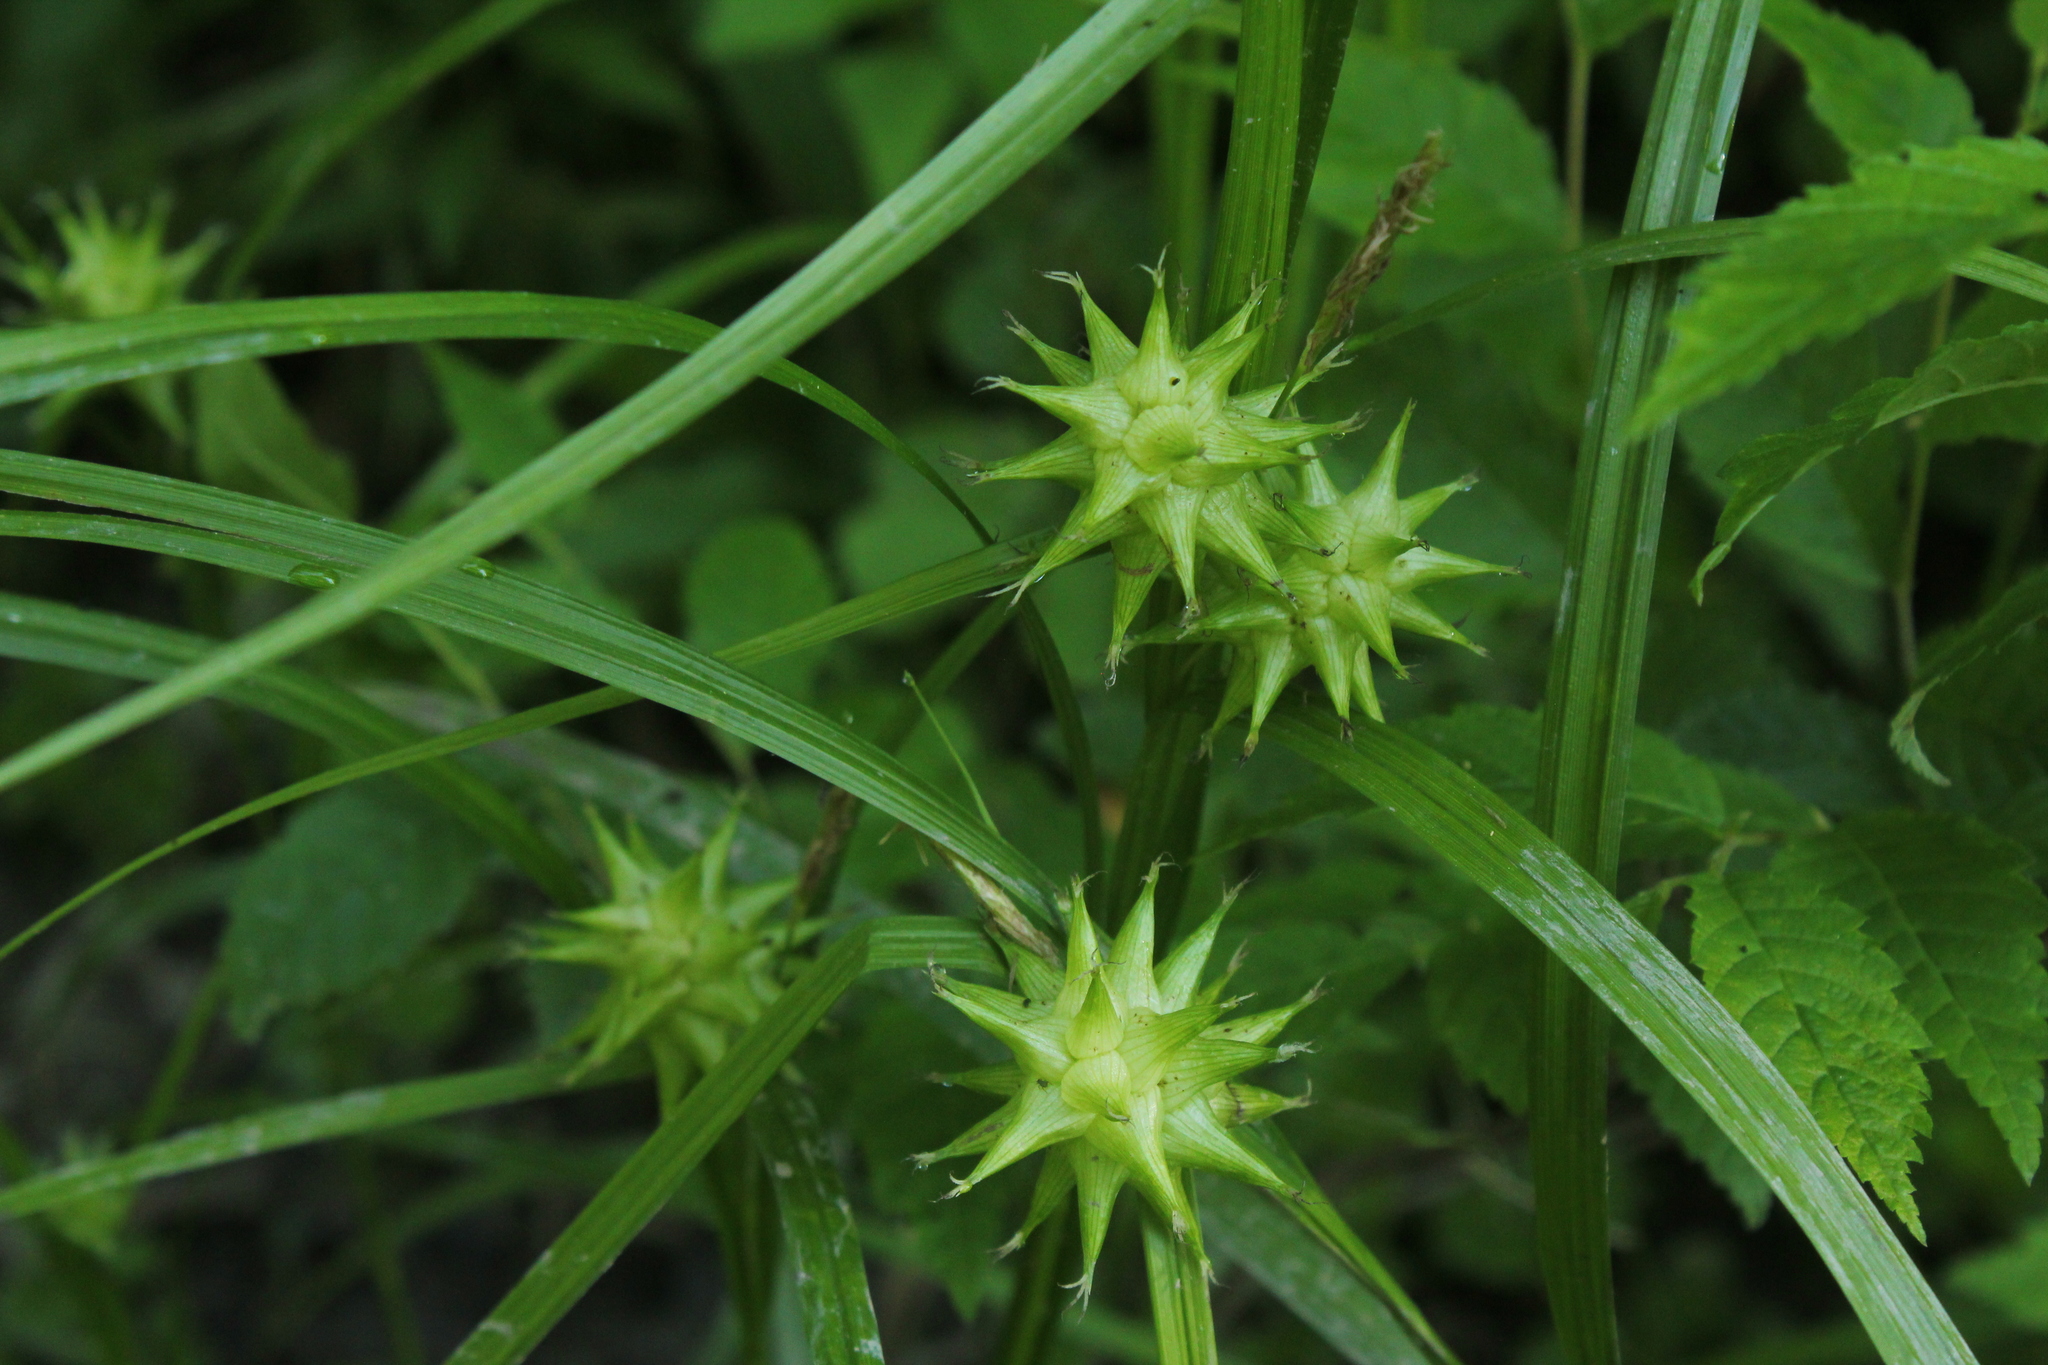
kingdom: Plantae
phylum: Tracheophyta
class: Liliopsida
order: Poales
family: Cyperaceae
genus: Carex
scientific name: Carex grayi
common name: Asa gray's sedge
